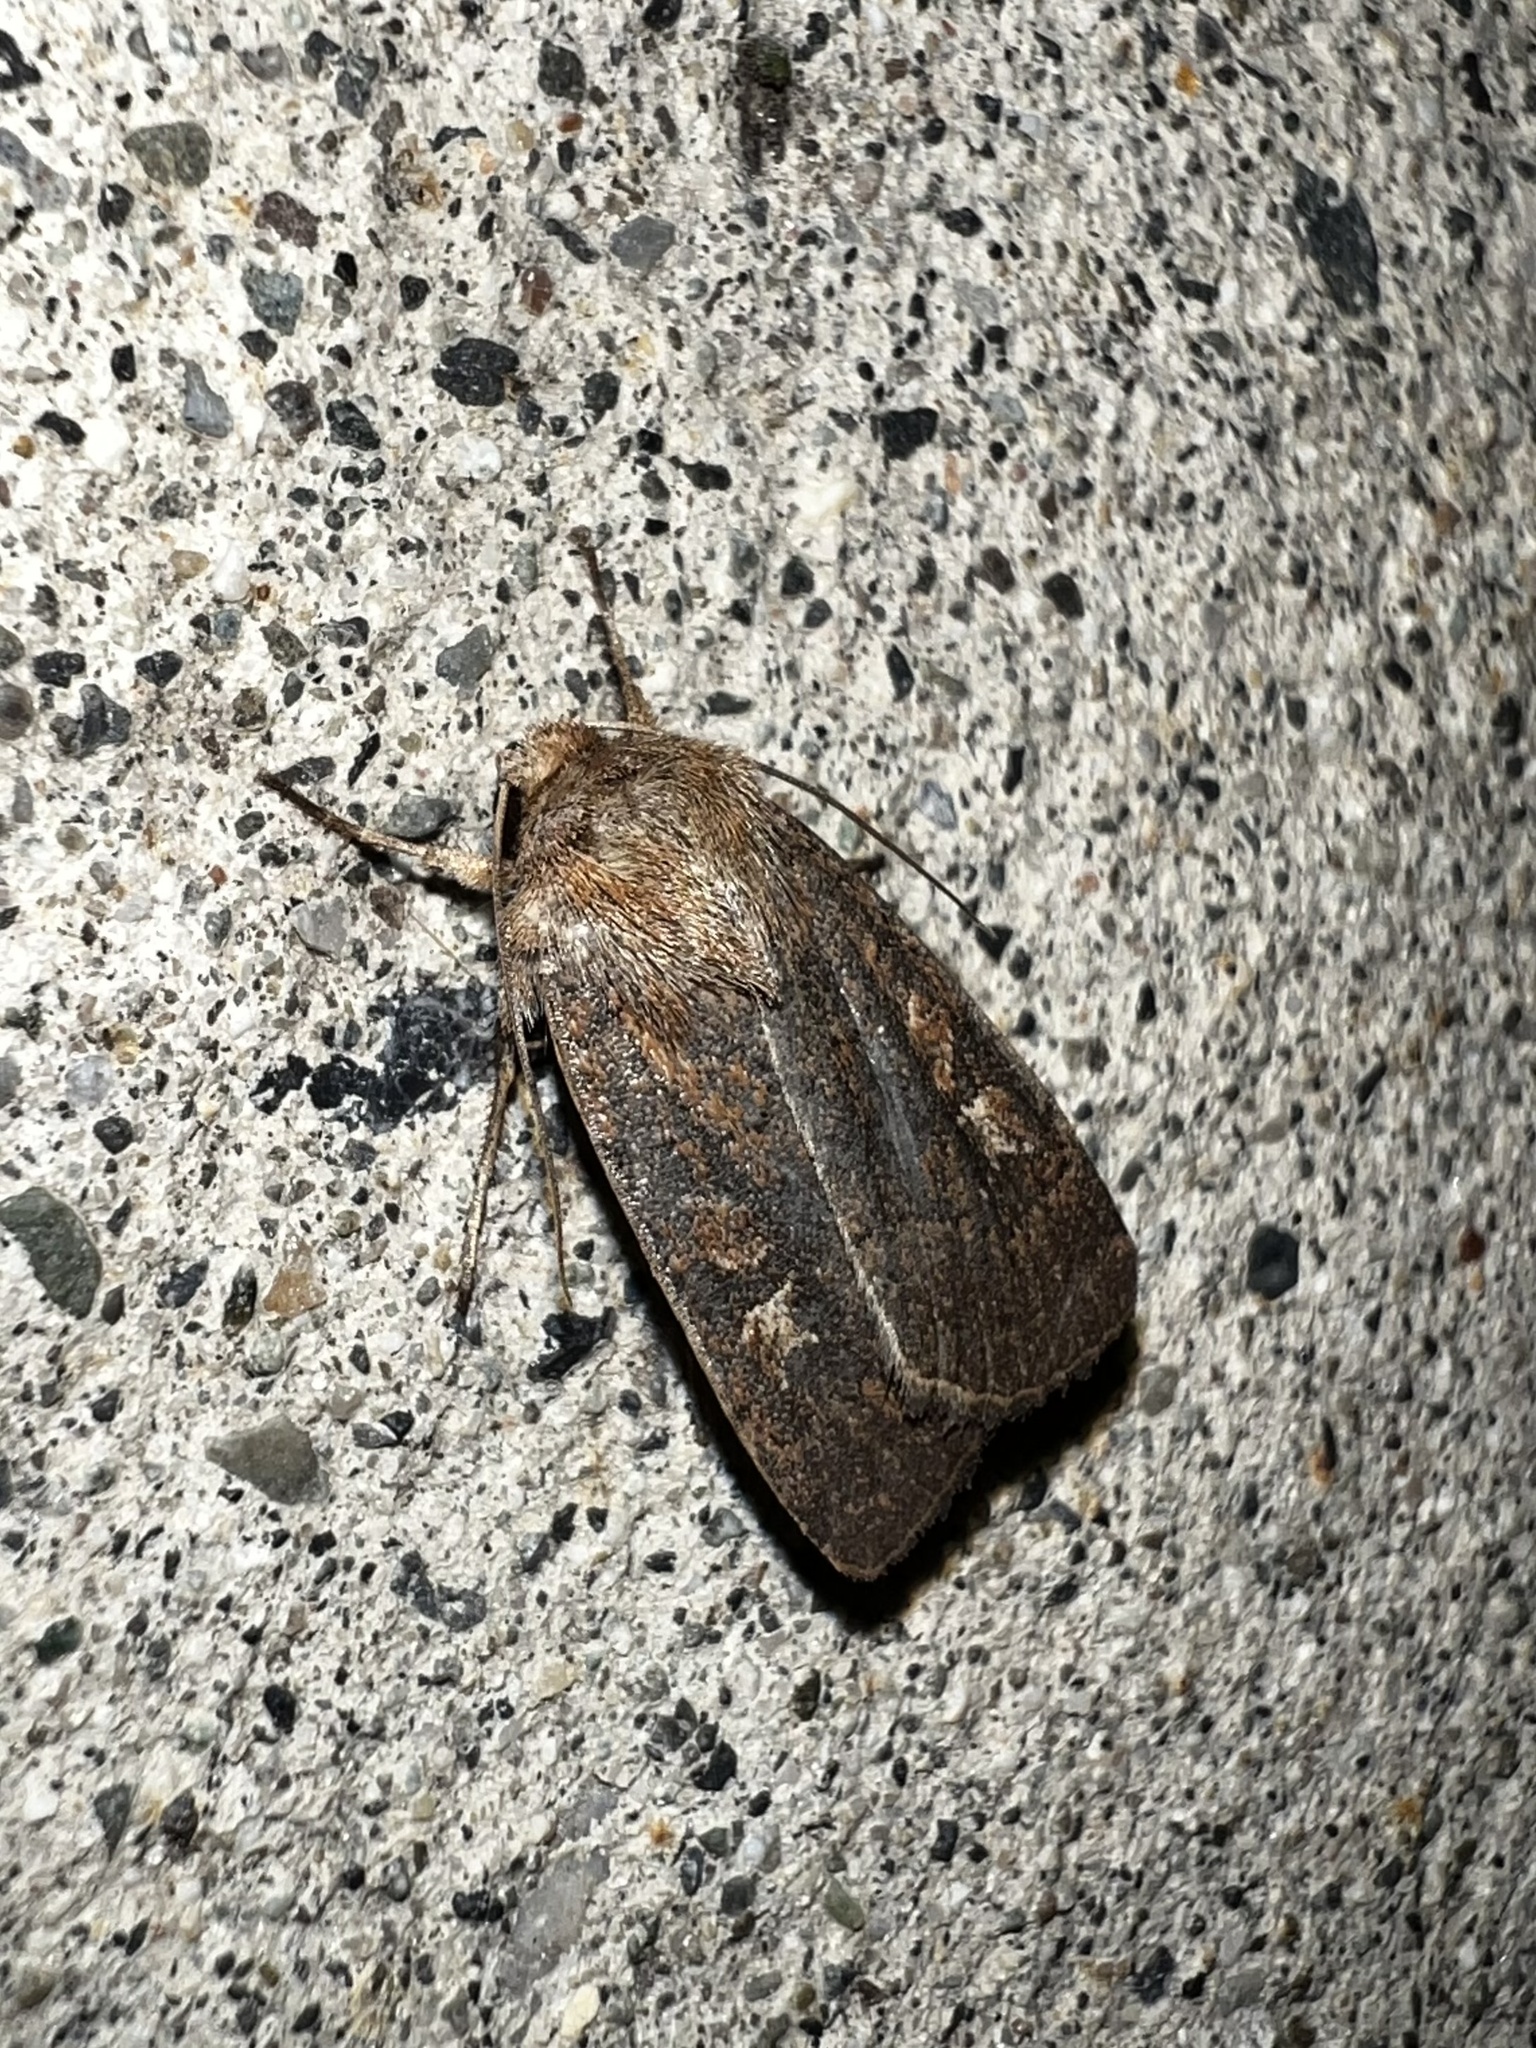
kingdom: Animalia
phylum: Arthropoda
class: Insecta
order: Lepidoptera
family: Noctuidae
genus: Xestia
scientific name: Xestia xanthographa
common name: Square-spot rustic
